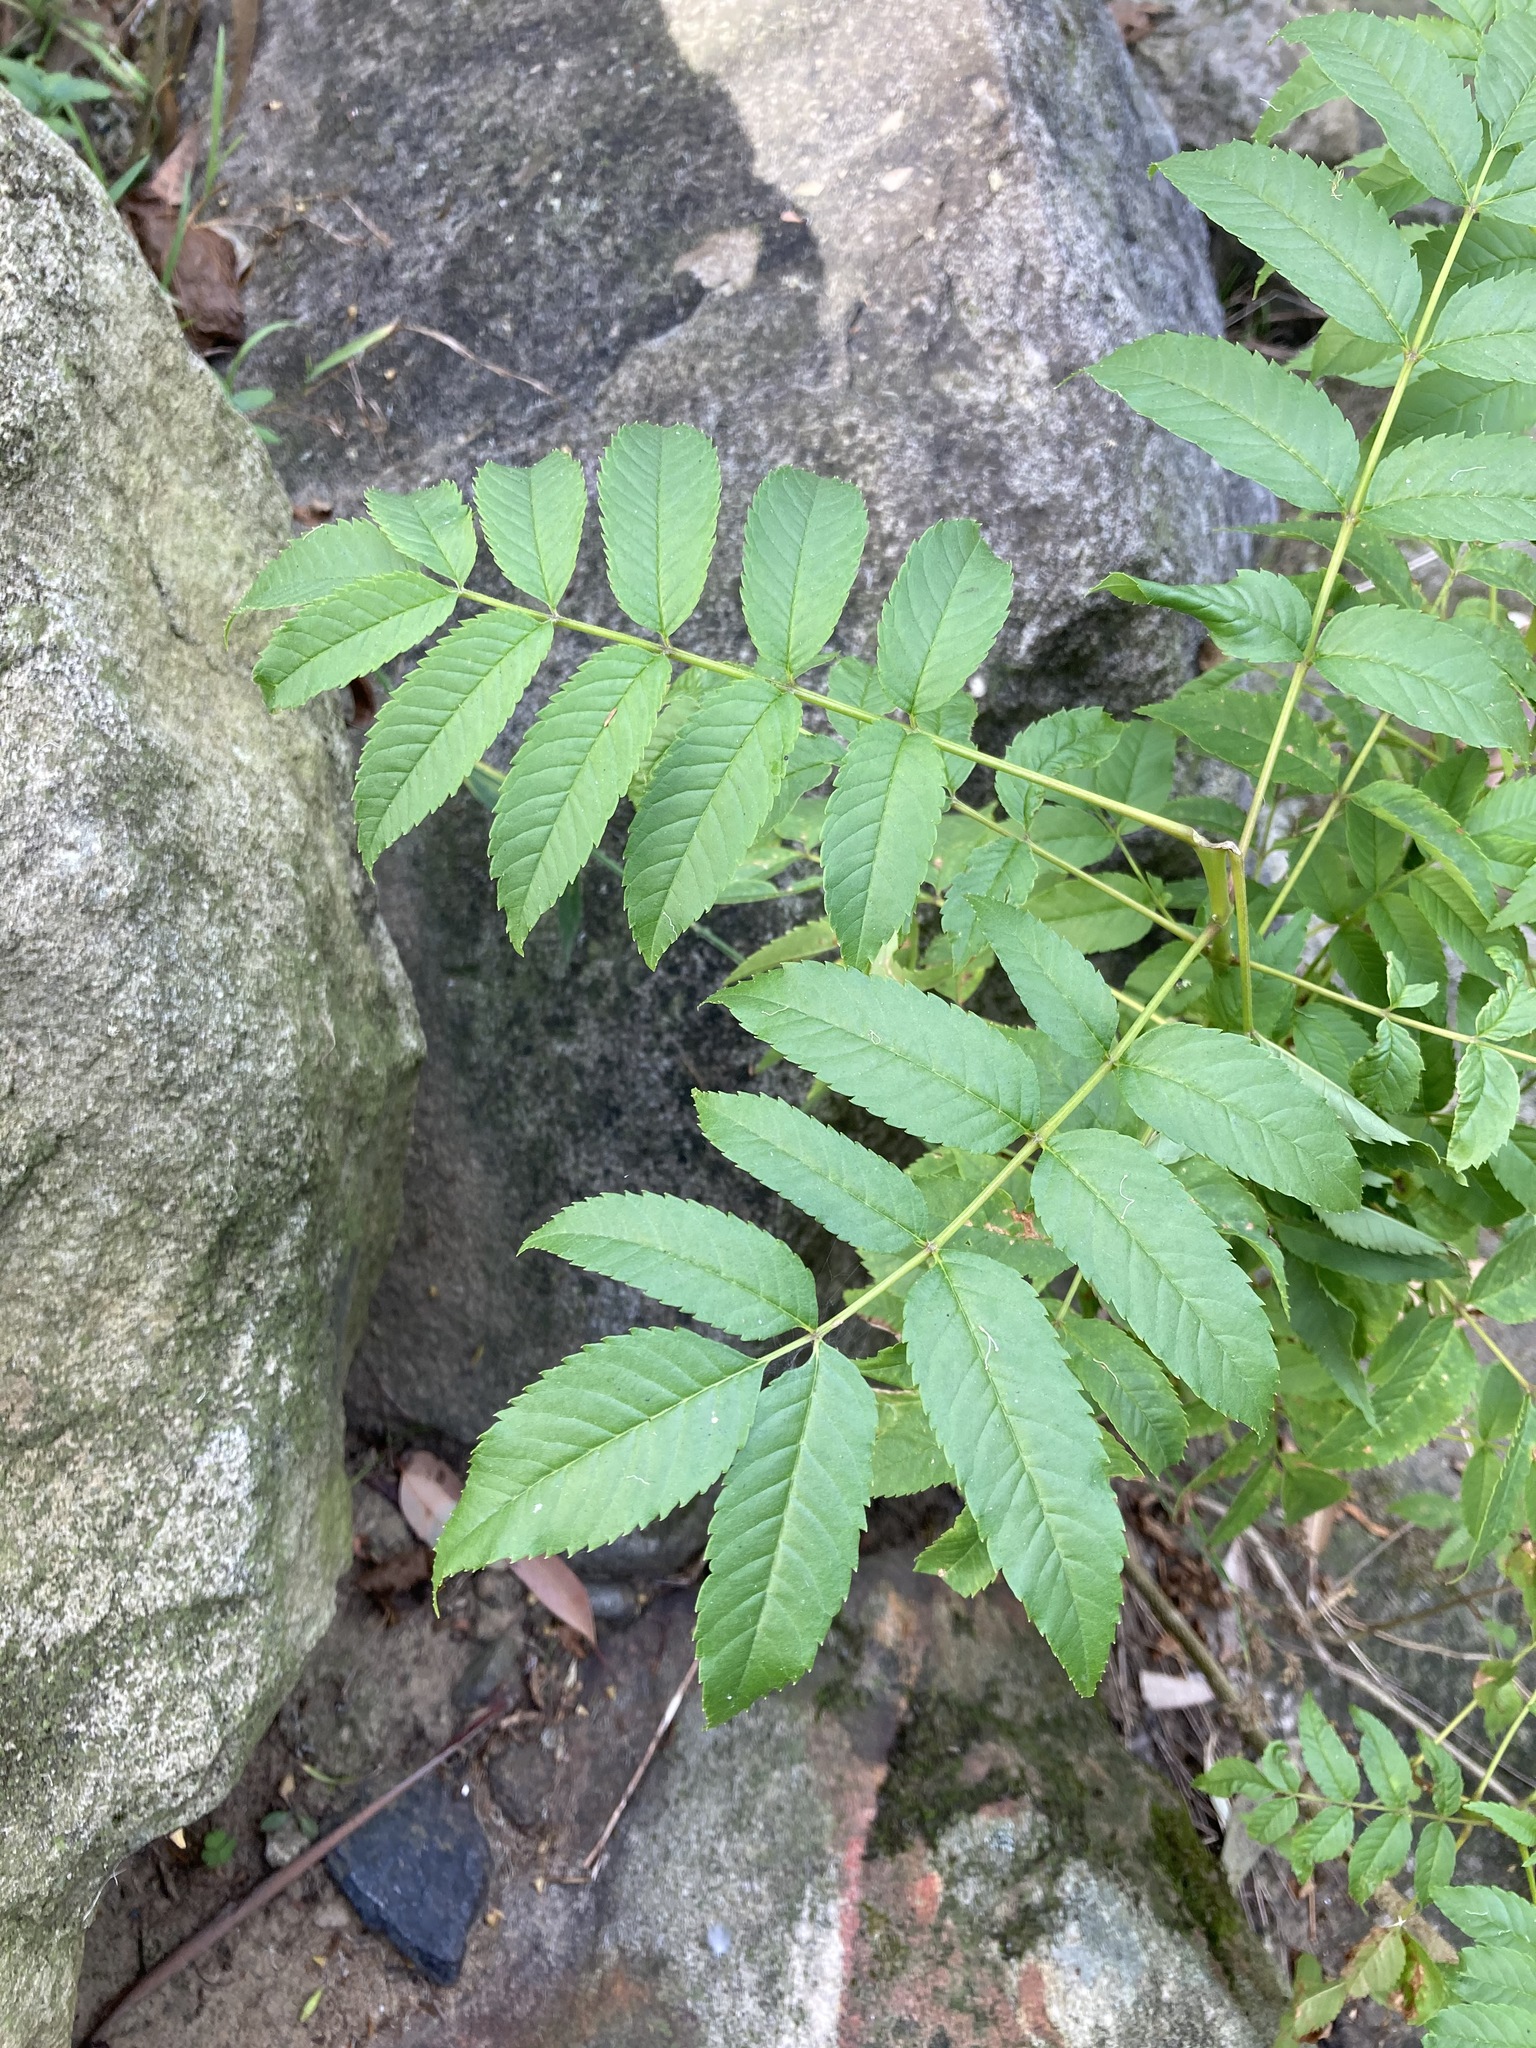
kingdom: Plantae
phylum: Tracheophyta
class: Magnoliopsida
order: Lamiales
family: Bignoniaceae
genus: Tecoma
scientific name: Tecoma stans
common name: Yellow trumpetbush
